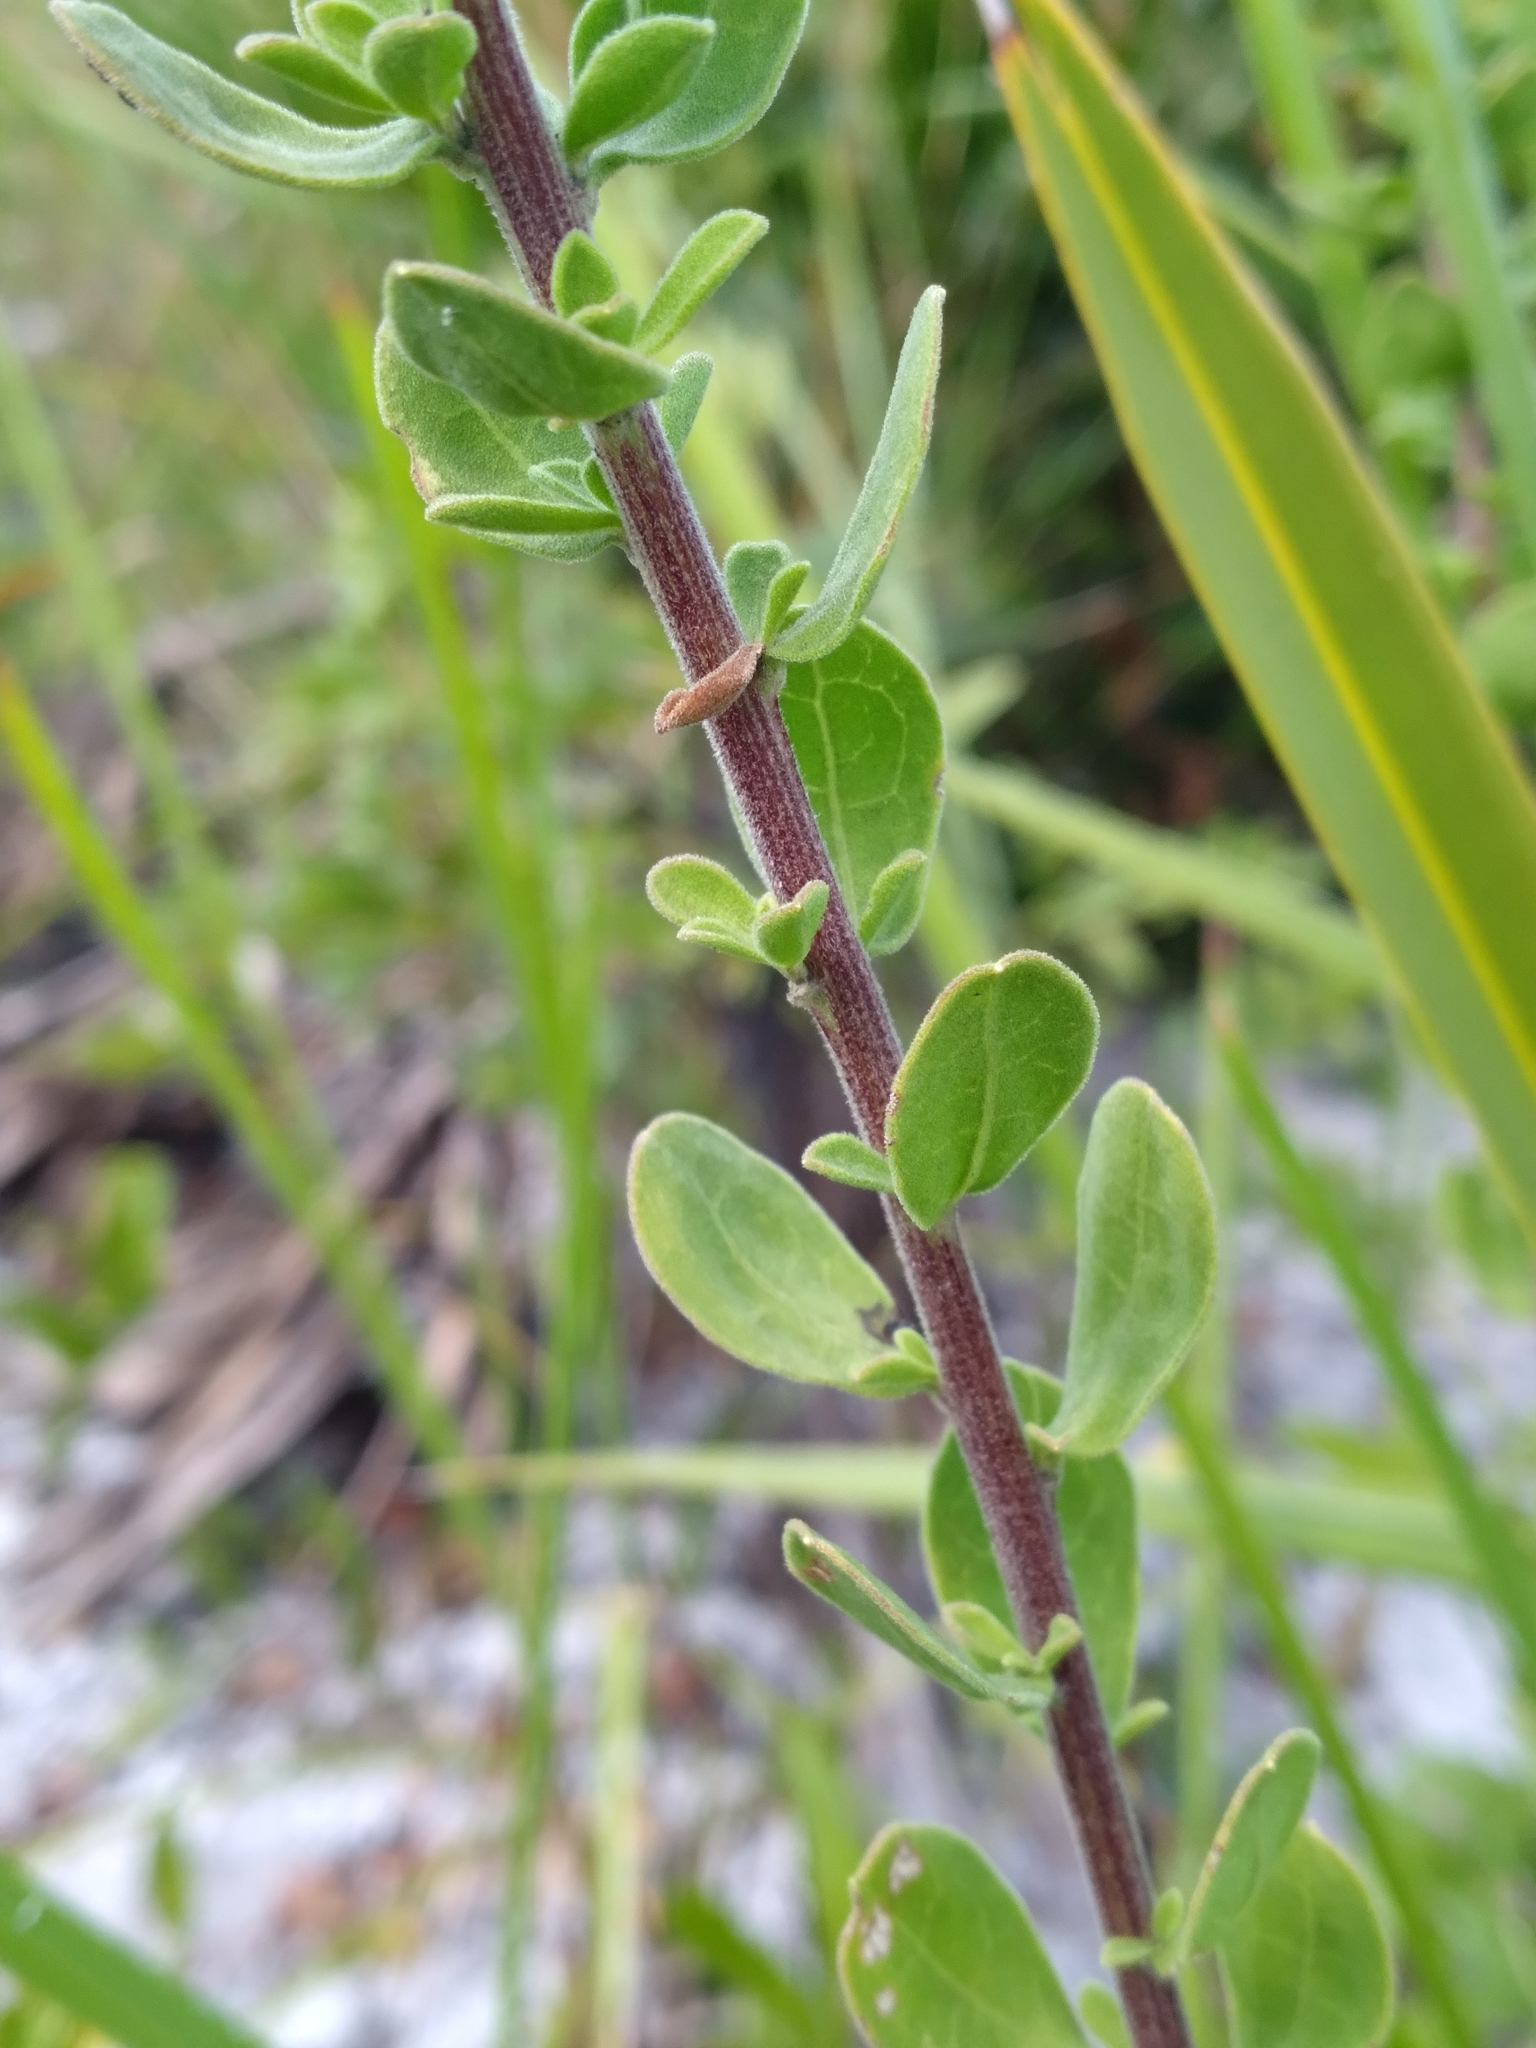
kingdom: Plantae
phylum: Tracheophyta
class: Magnoliopsida
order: Asterales
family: Asteraceae
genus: Sericocarpus
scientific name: Sericocarpus tortifolius
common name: Dixie aster
